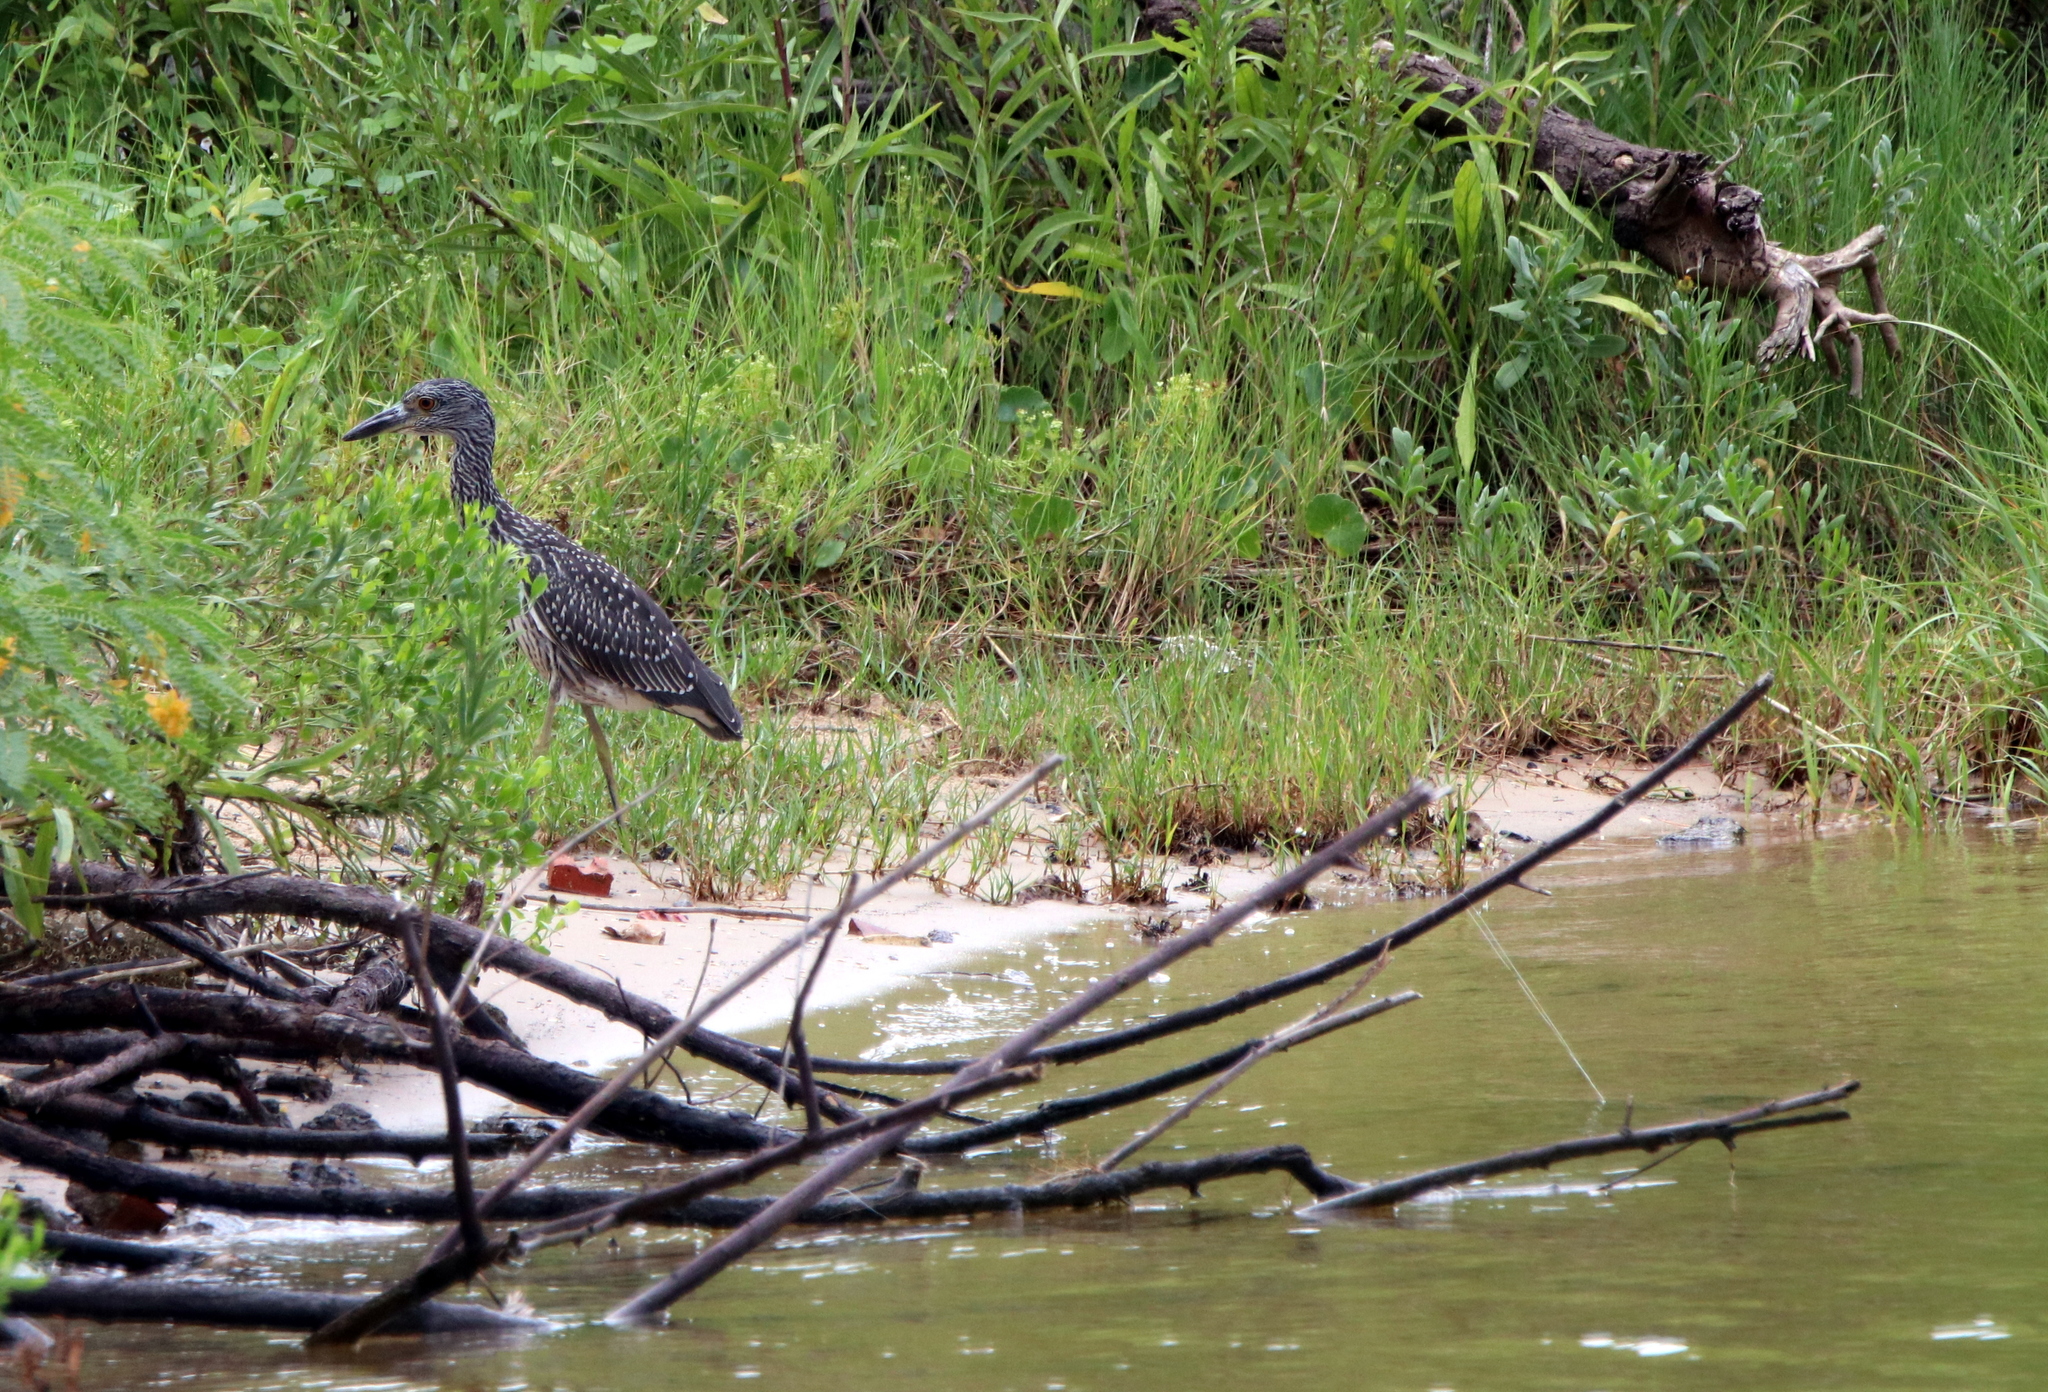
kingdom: Animalia
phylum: Chordata
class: Aves
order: Pelecaniformes
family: Ardeidae
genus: Nyctanassa
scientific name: Nyctanassa violacea
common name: Yellow-crowned night heron
